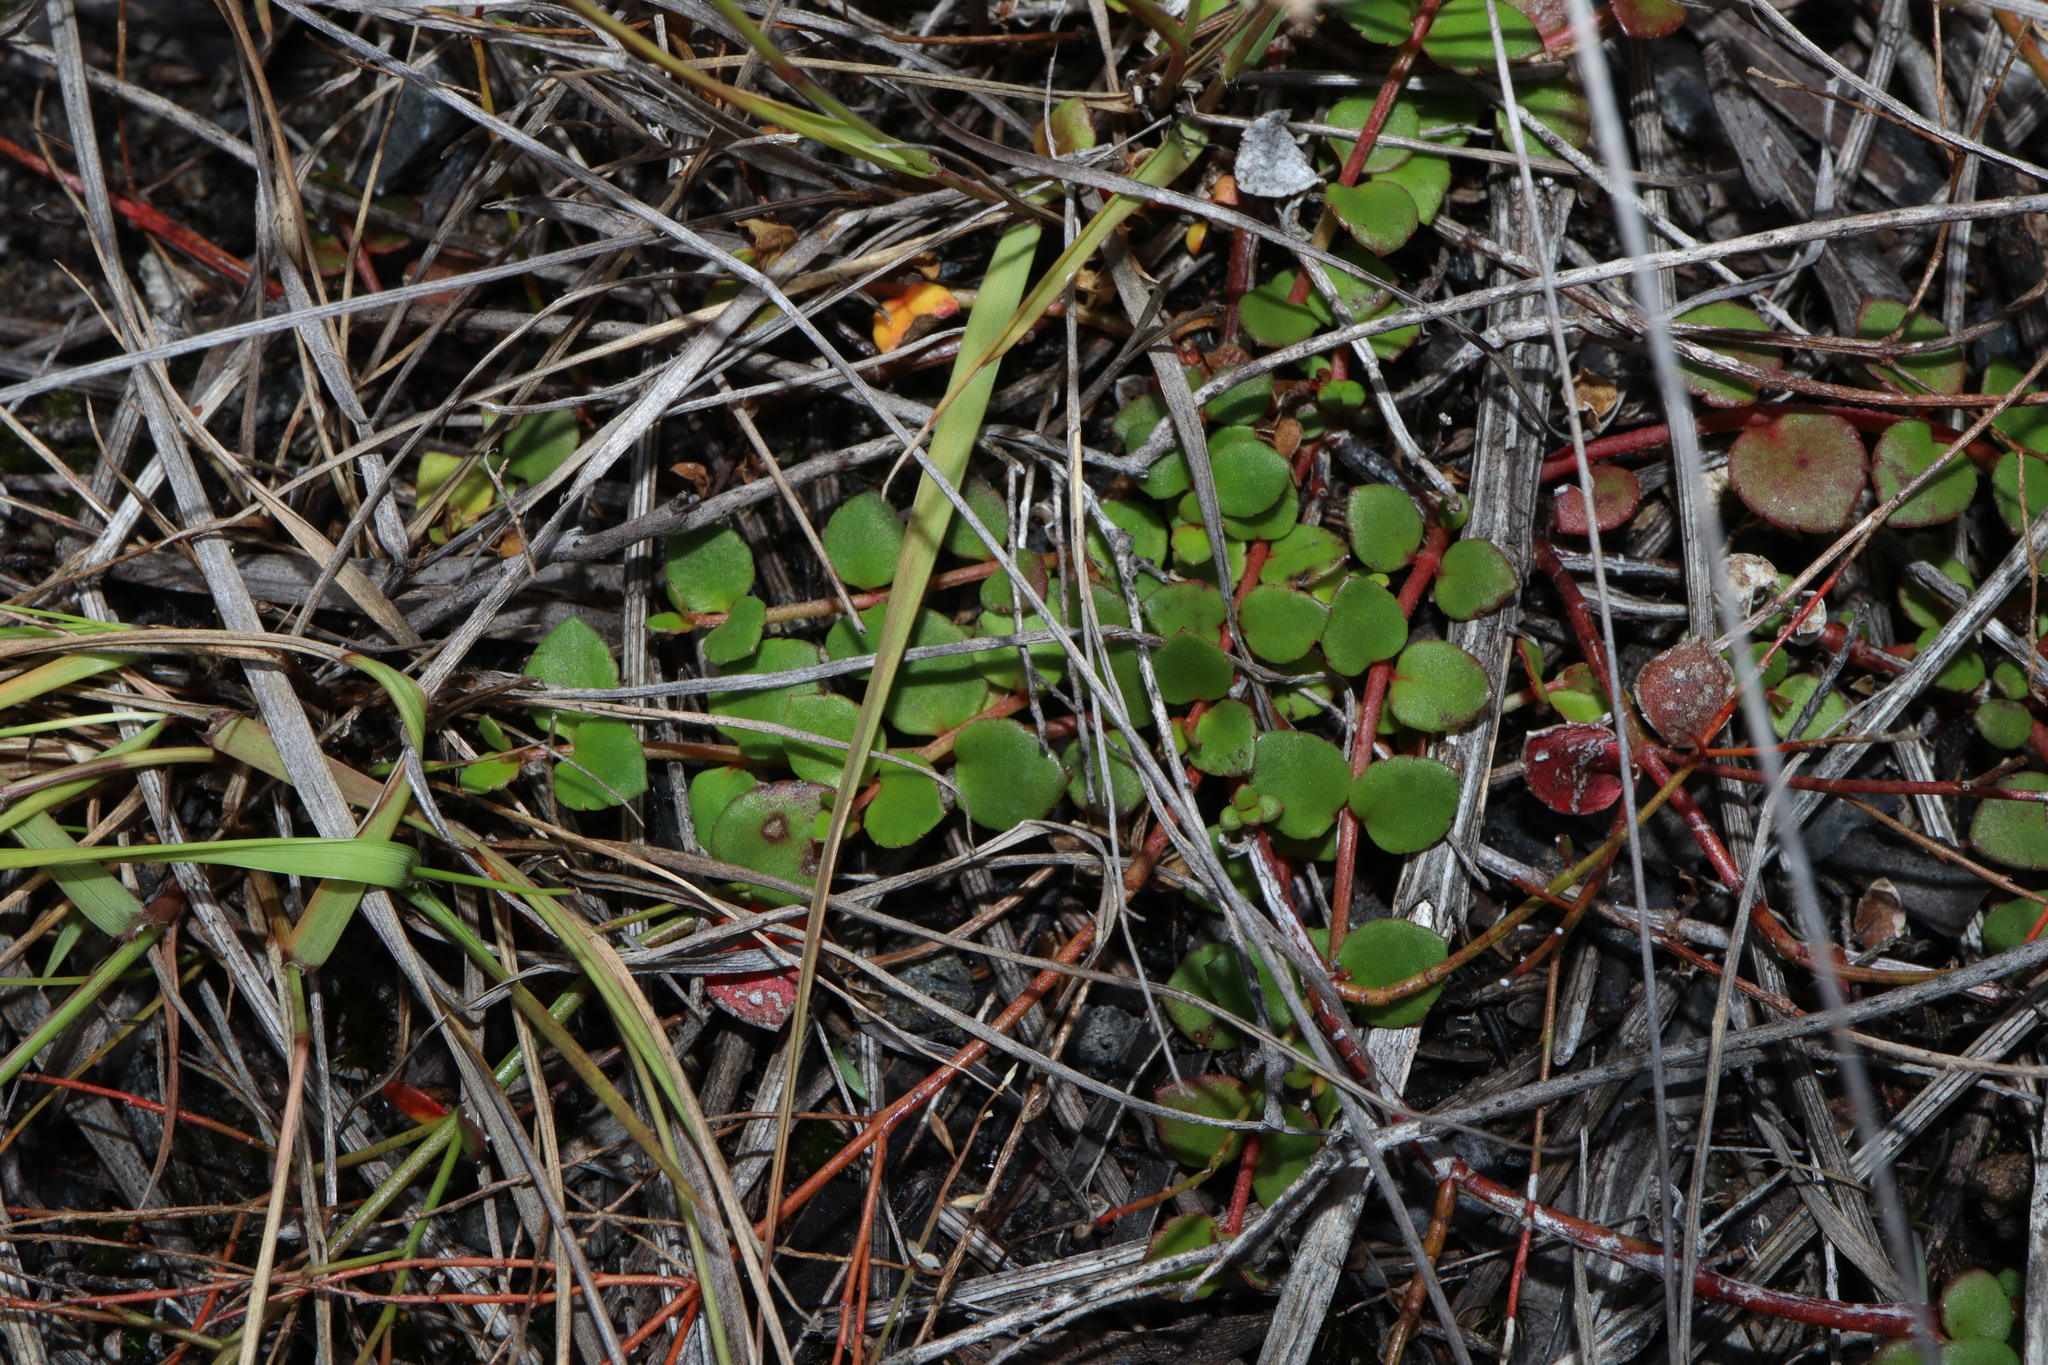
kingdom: Plantae
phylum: Tracheophyta
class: Magnoliopsida
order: Saxifragales
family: Haloragaceae
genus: Gonocarpus
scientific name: Gonocarpus micranthus
